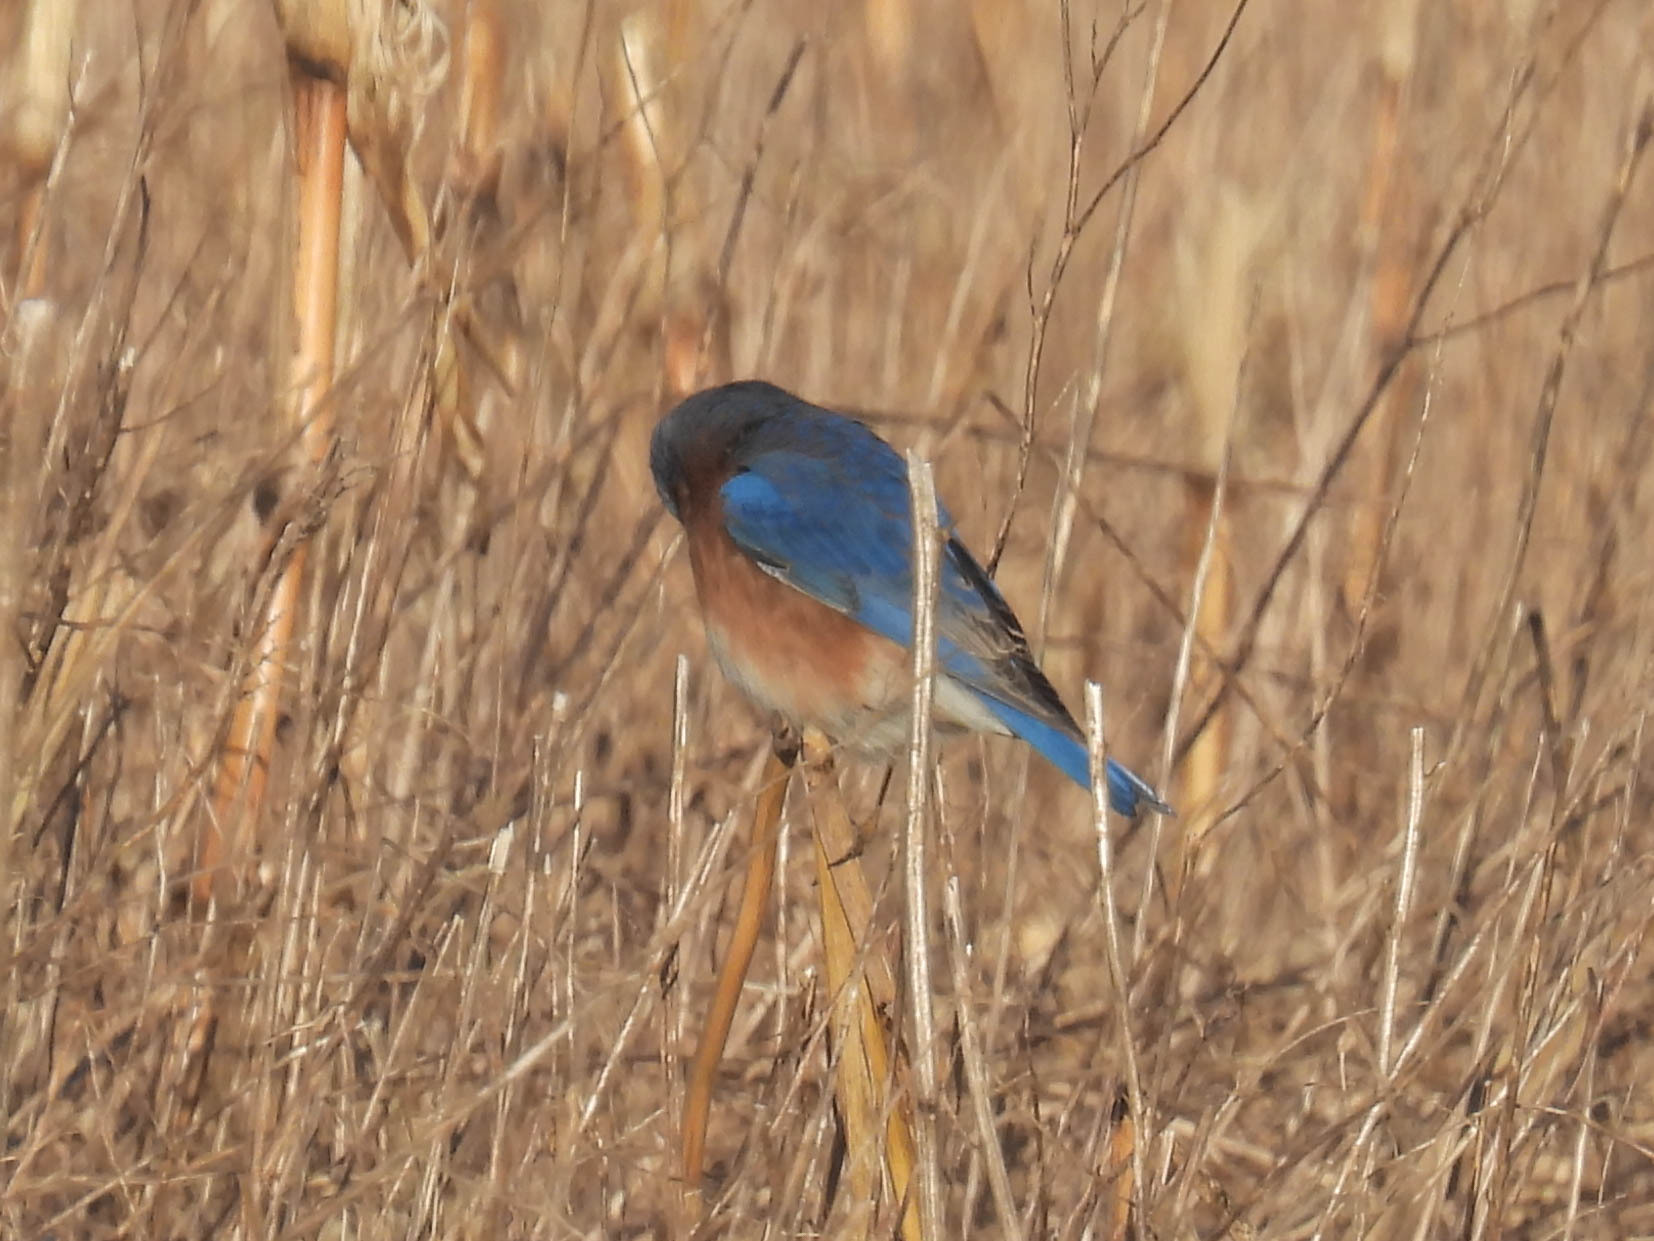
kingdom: Animalia
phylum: Chordata
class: Aves
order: Passeriformes
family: Turdidae
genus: Sialia
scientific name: Sialia sialis
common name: Eastern bluebird
